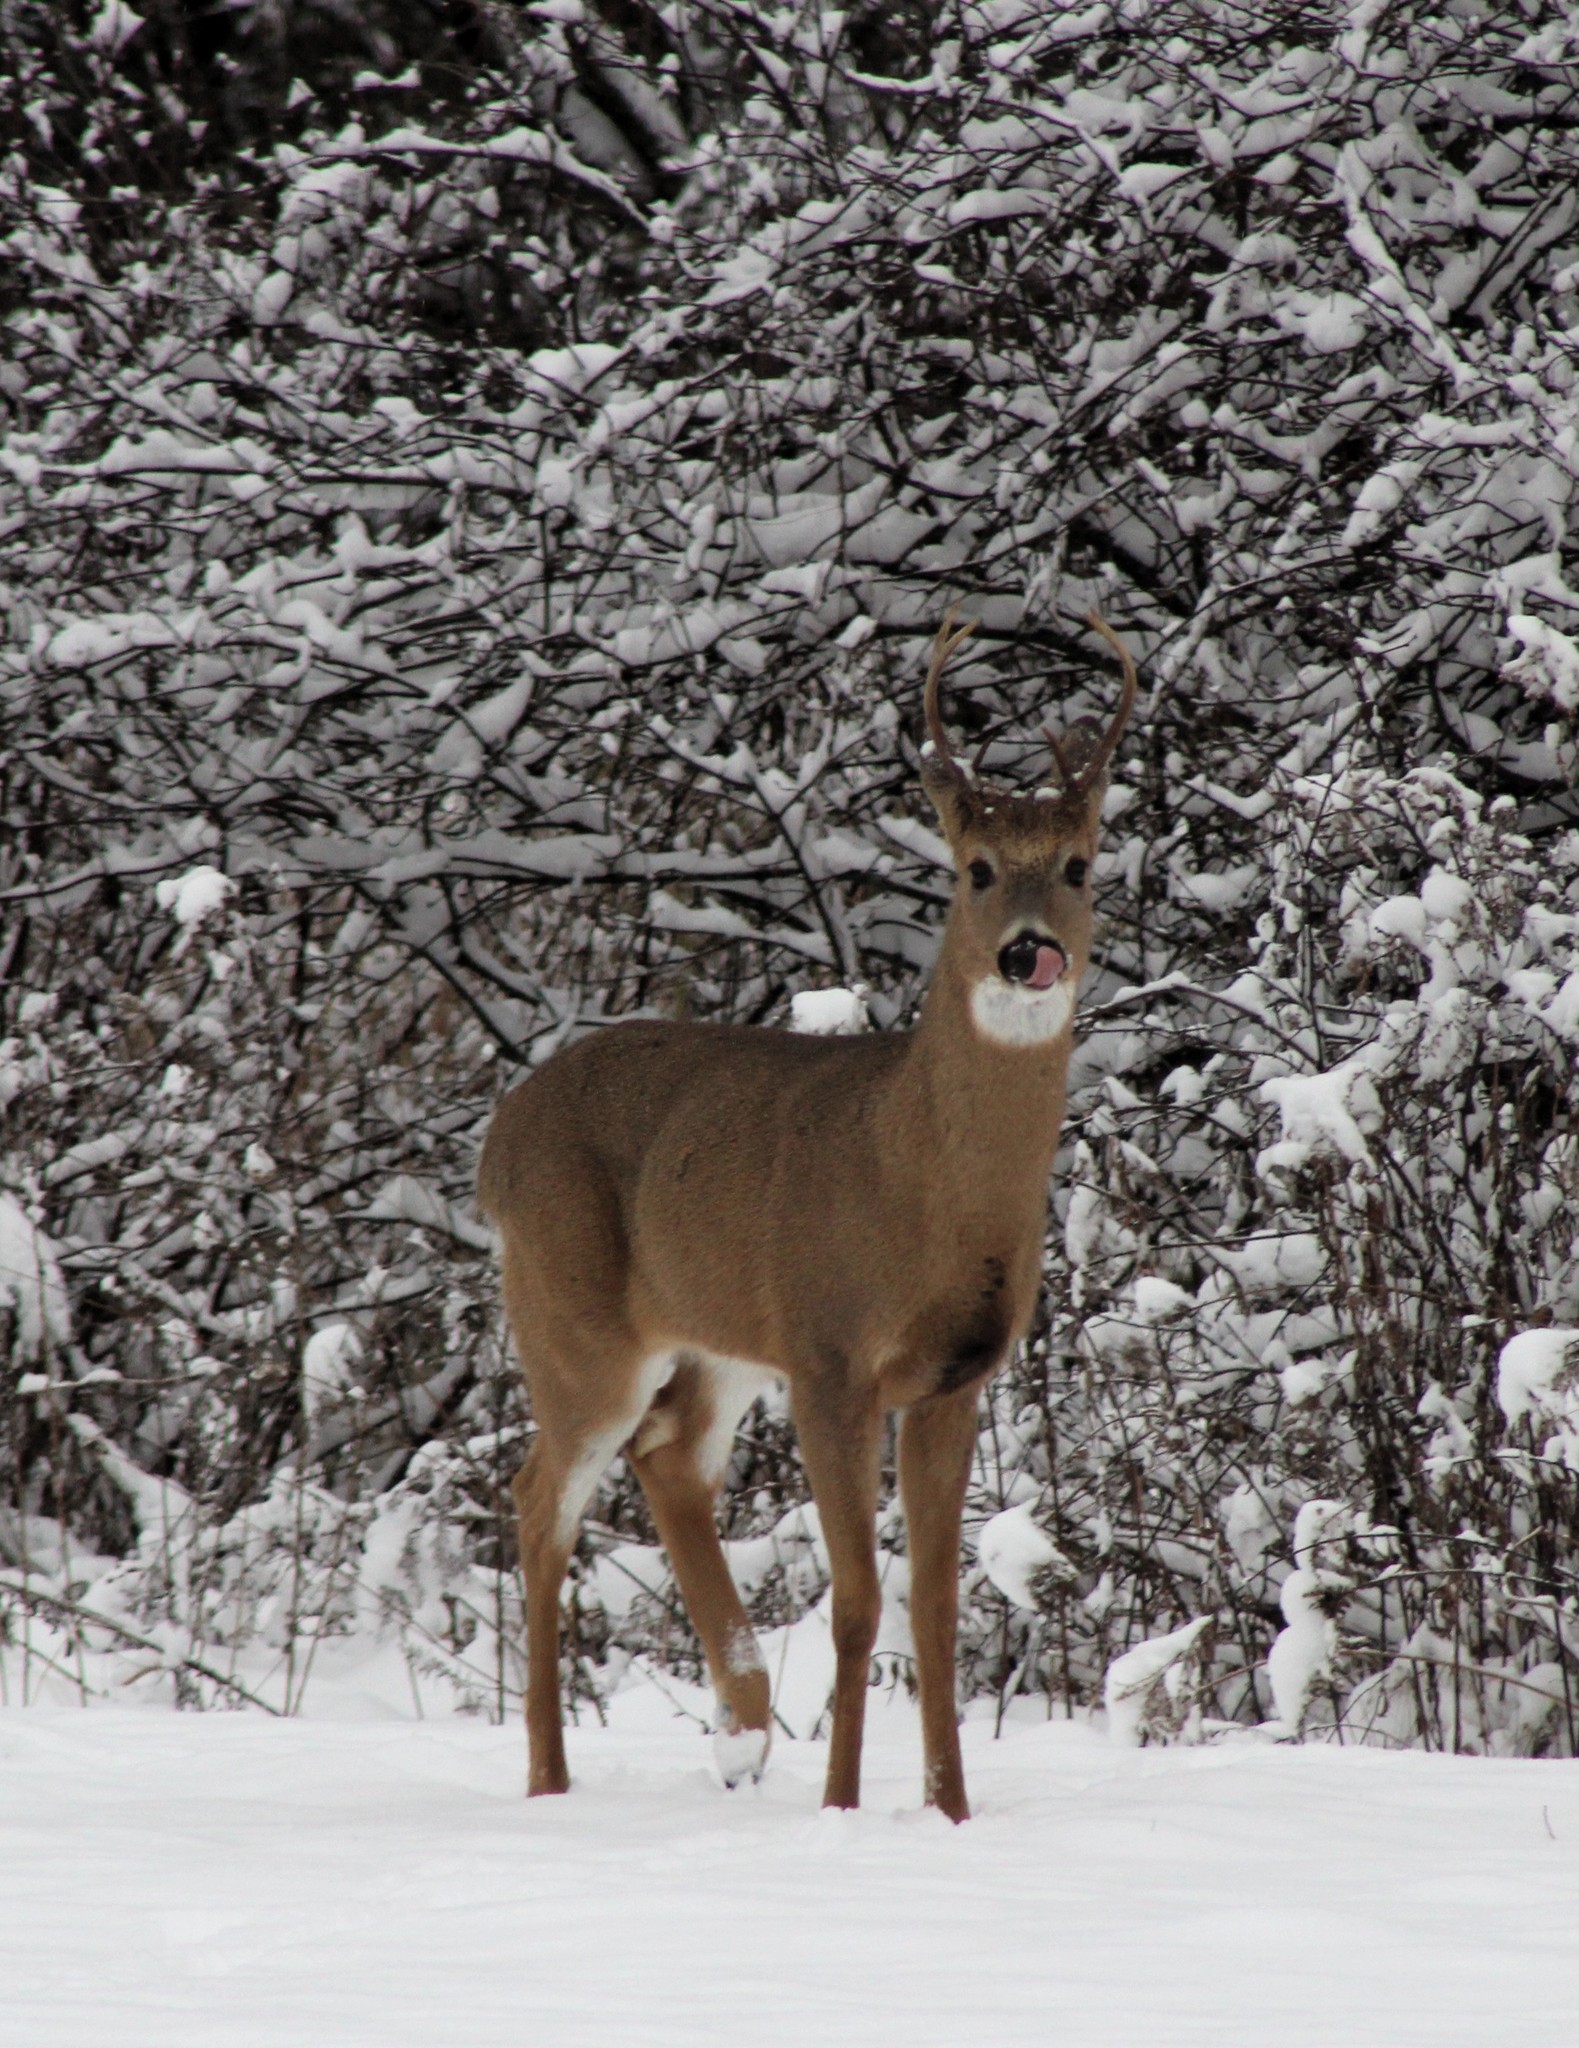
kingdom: Animalia
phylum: Chordata
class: Mammalia
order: Artiodactyla
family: Cervidae
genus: Odocoileus
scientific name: Odocoileus virginianus
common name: White-tailed deer
